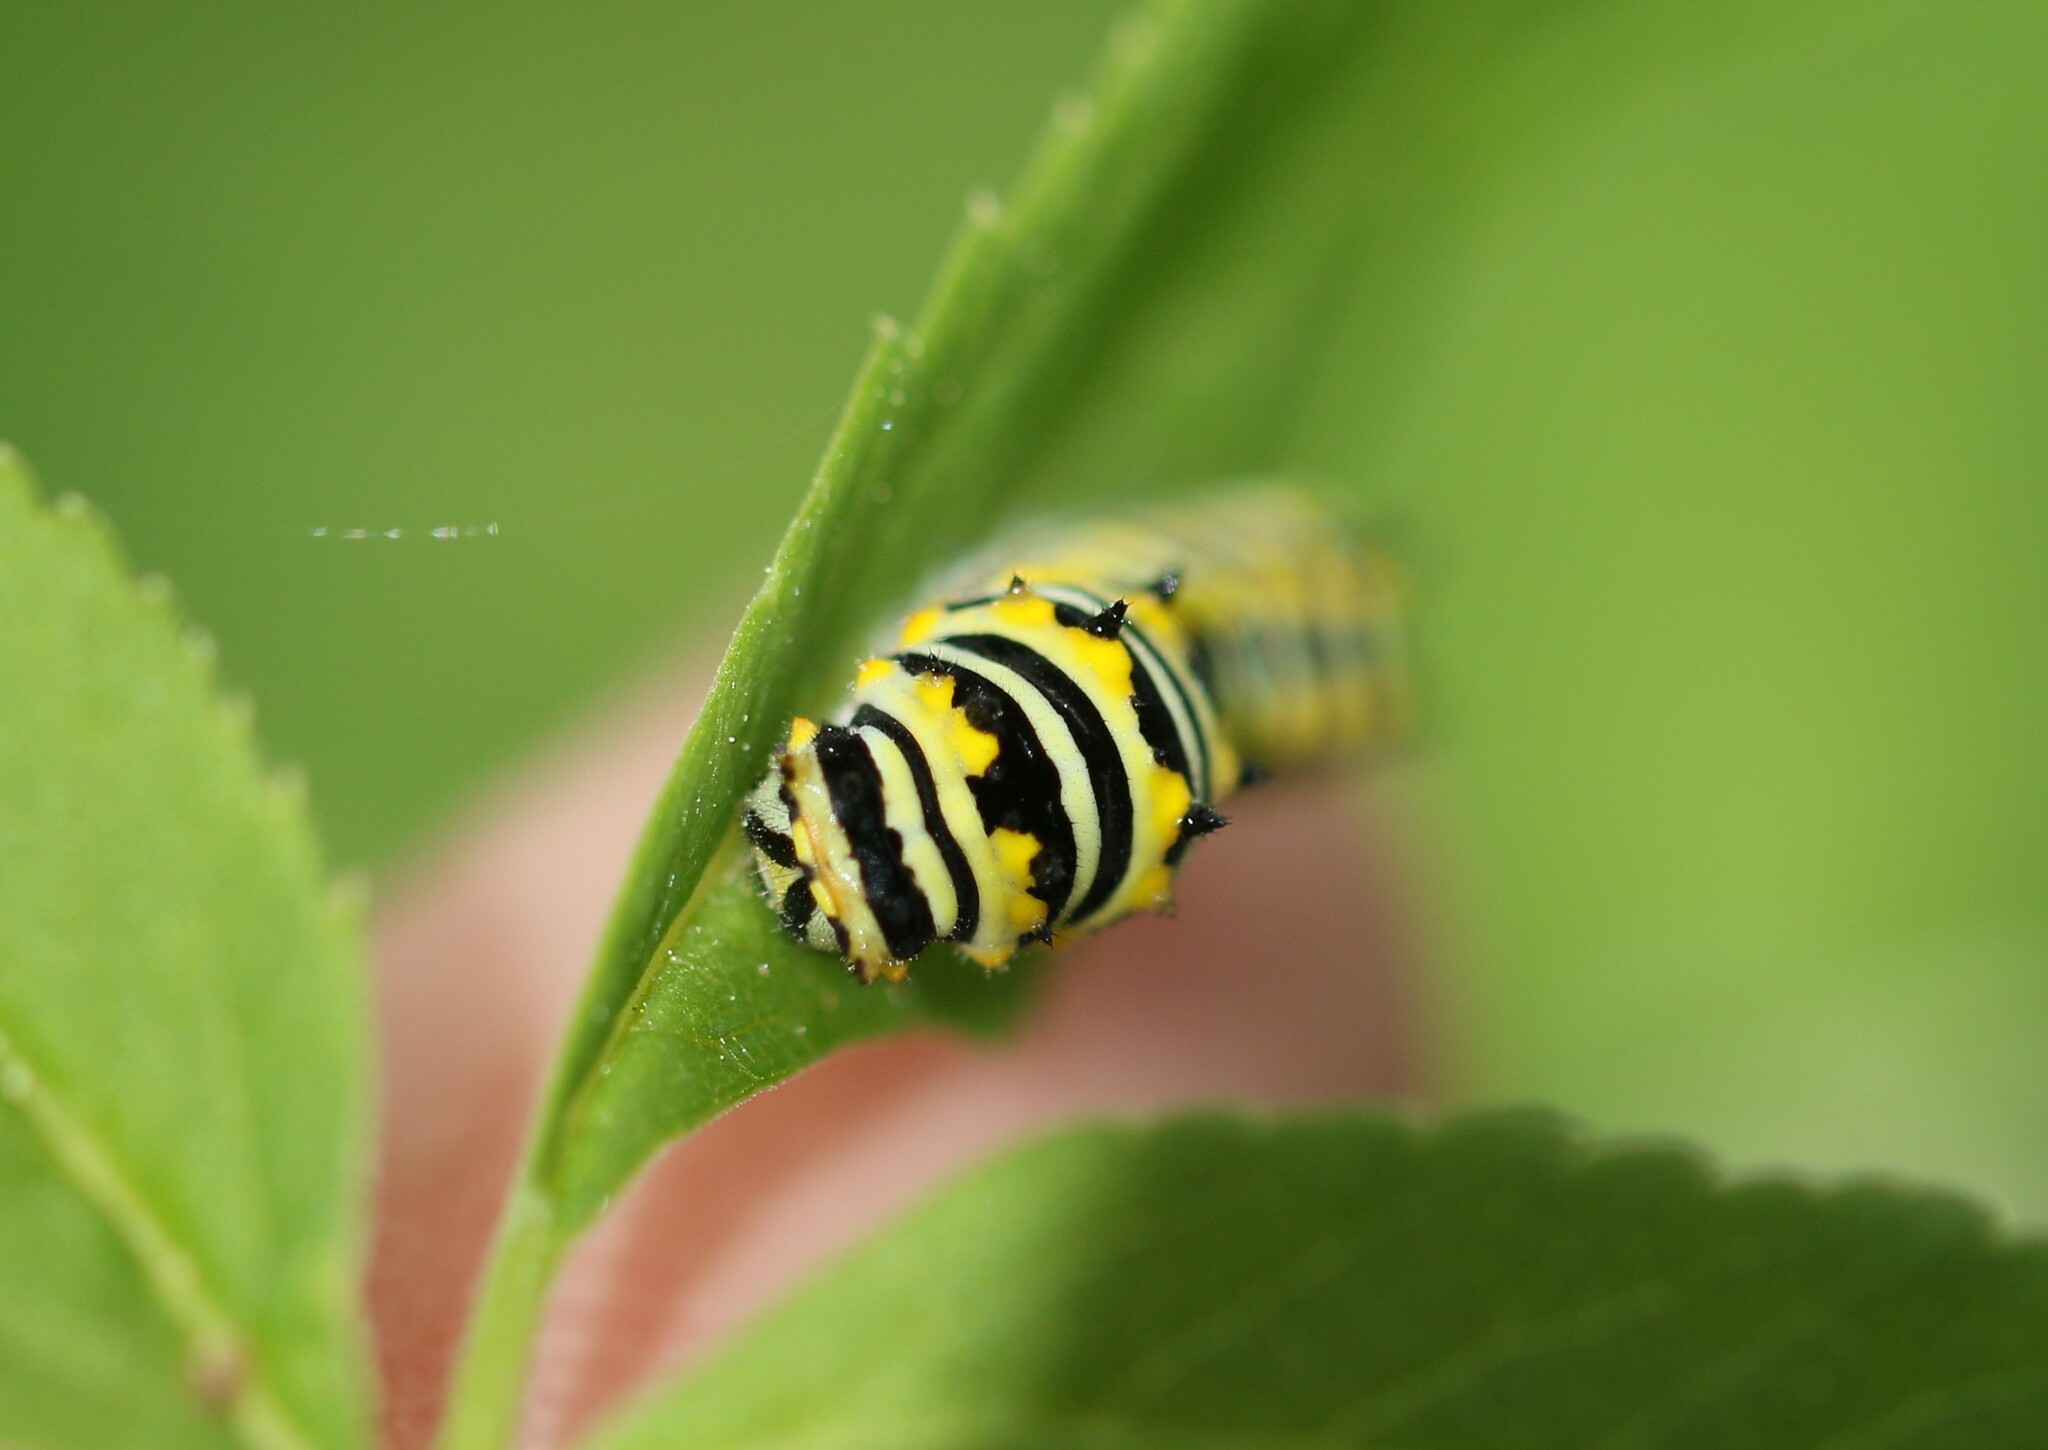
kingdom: Animalia
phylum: Arthropoda
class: Insecta
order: Lepidoptera
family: Papilionidae
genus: Papilio
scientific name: Papilio polyxenes
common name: Black swallowtail
